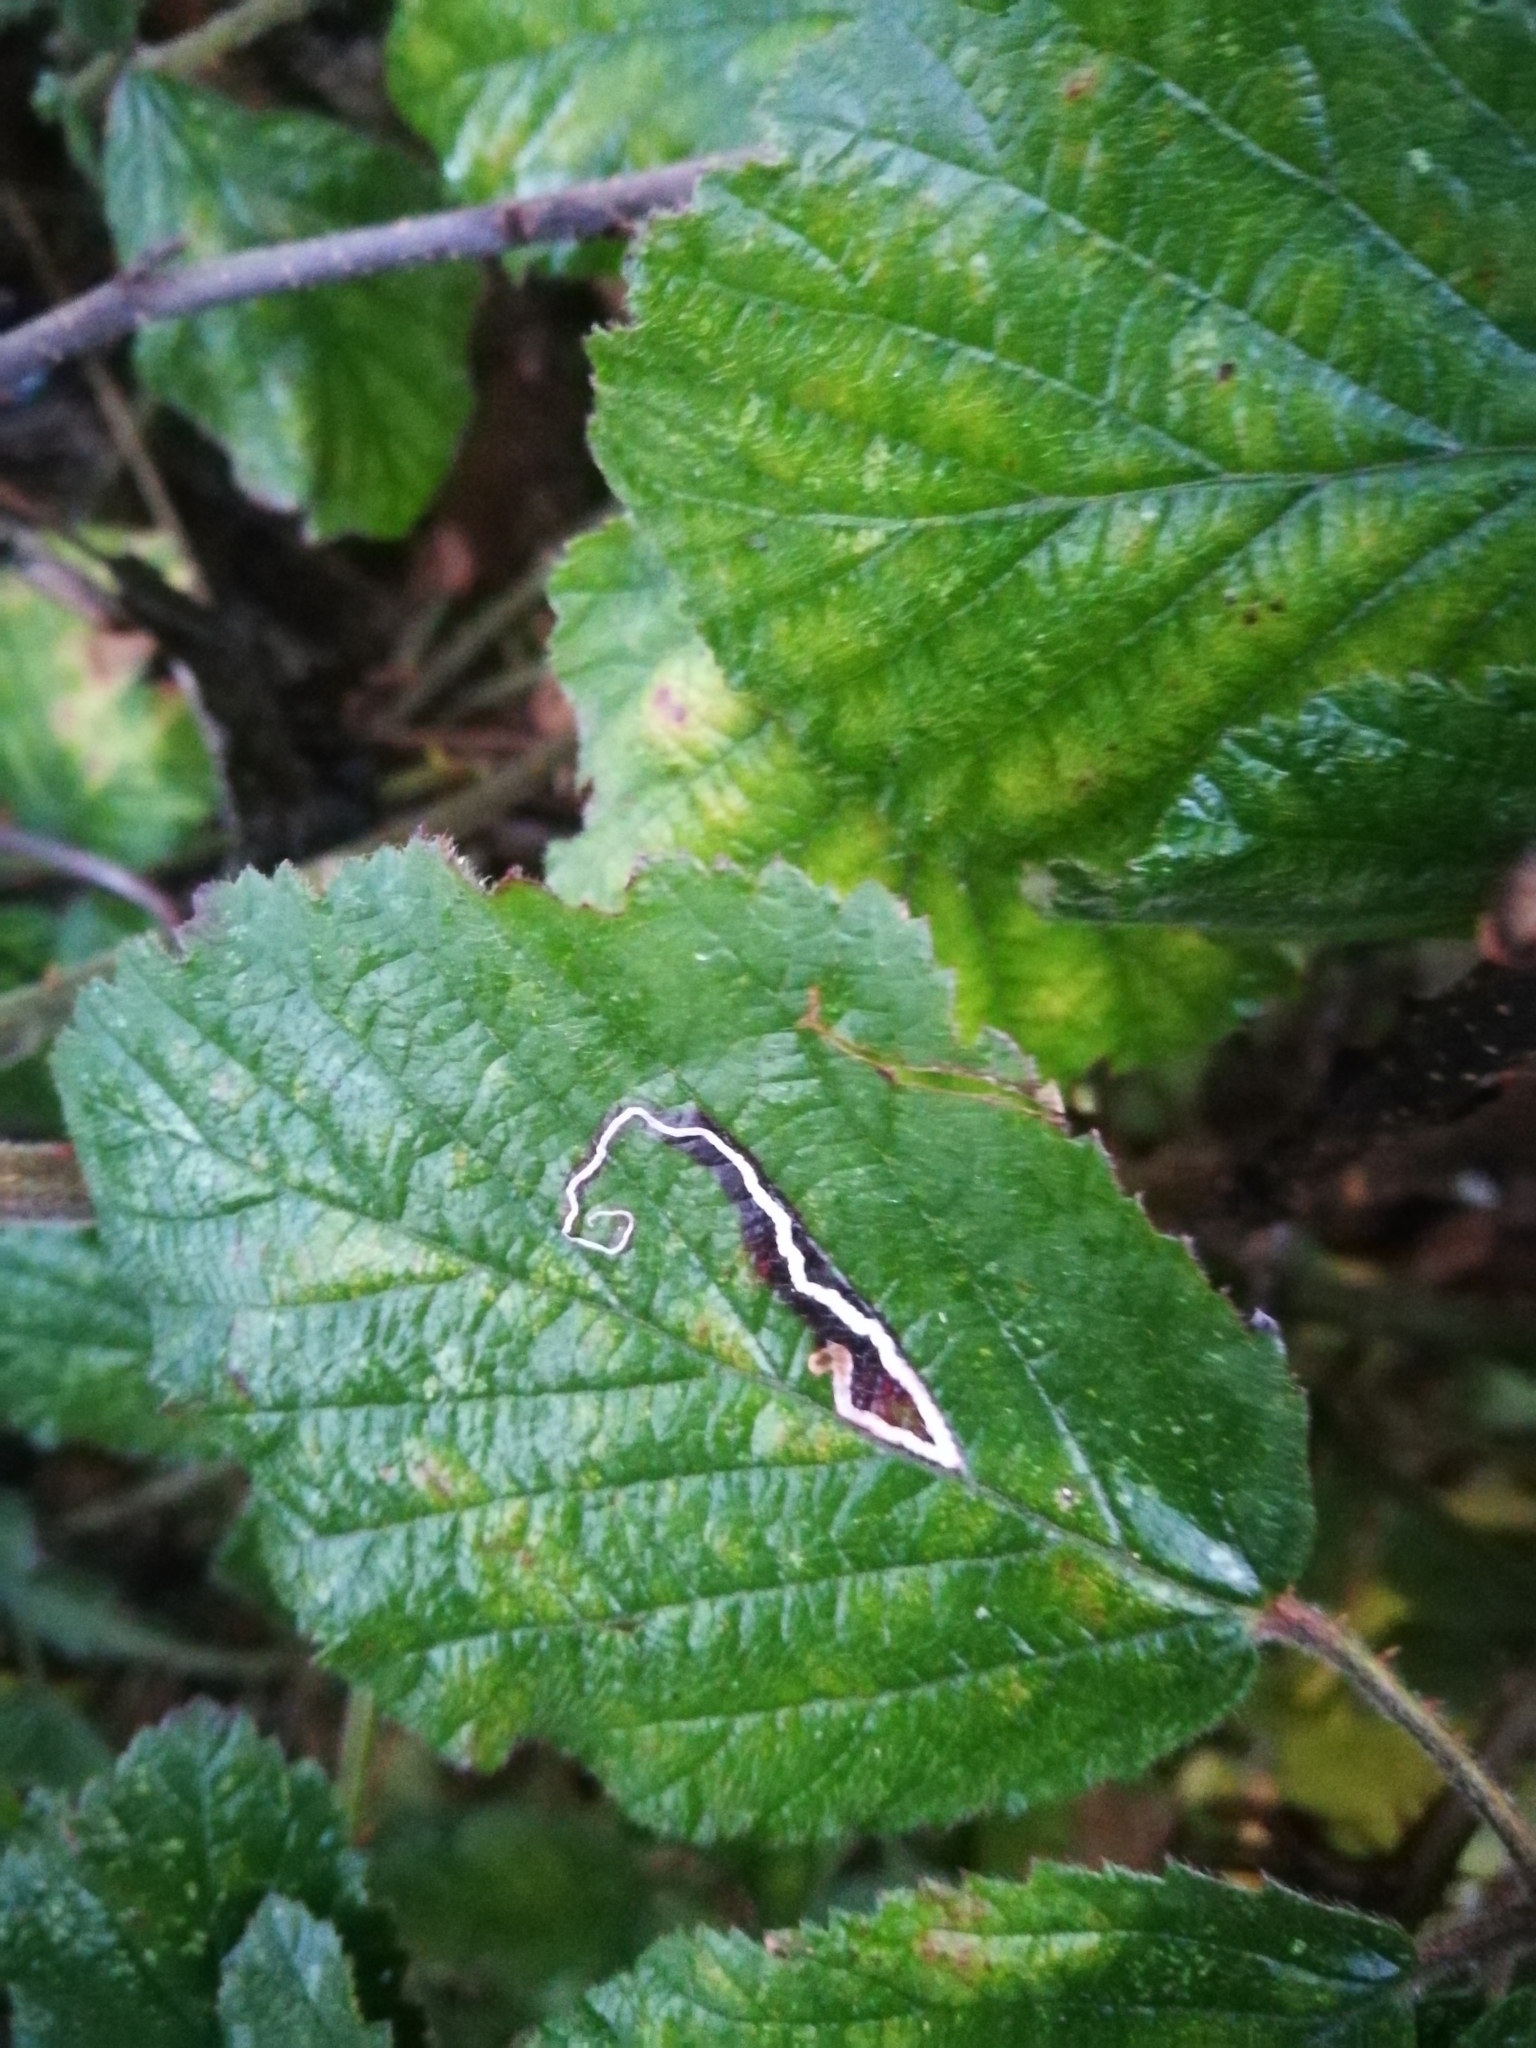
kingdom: Animalia
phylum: Arthropoda
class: Insecta
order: Lepidoptera
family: Nepticulidae
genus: Stigmella
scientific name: Stigmella aurella
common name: Golden pigmy
